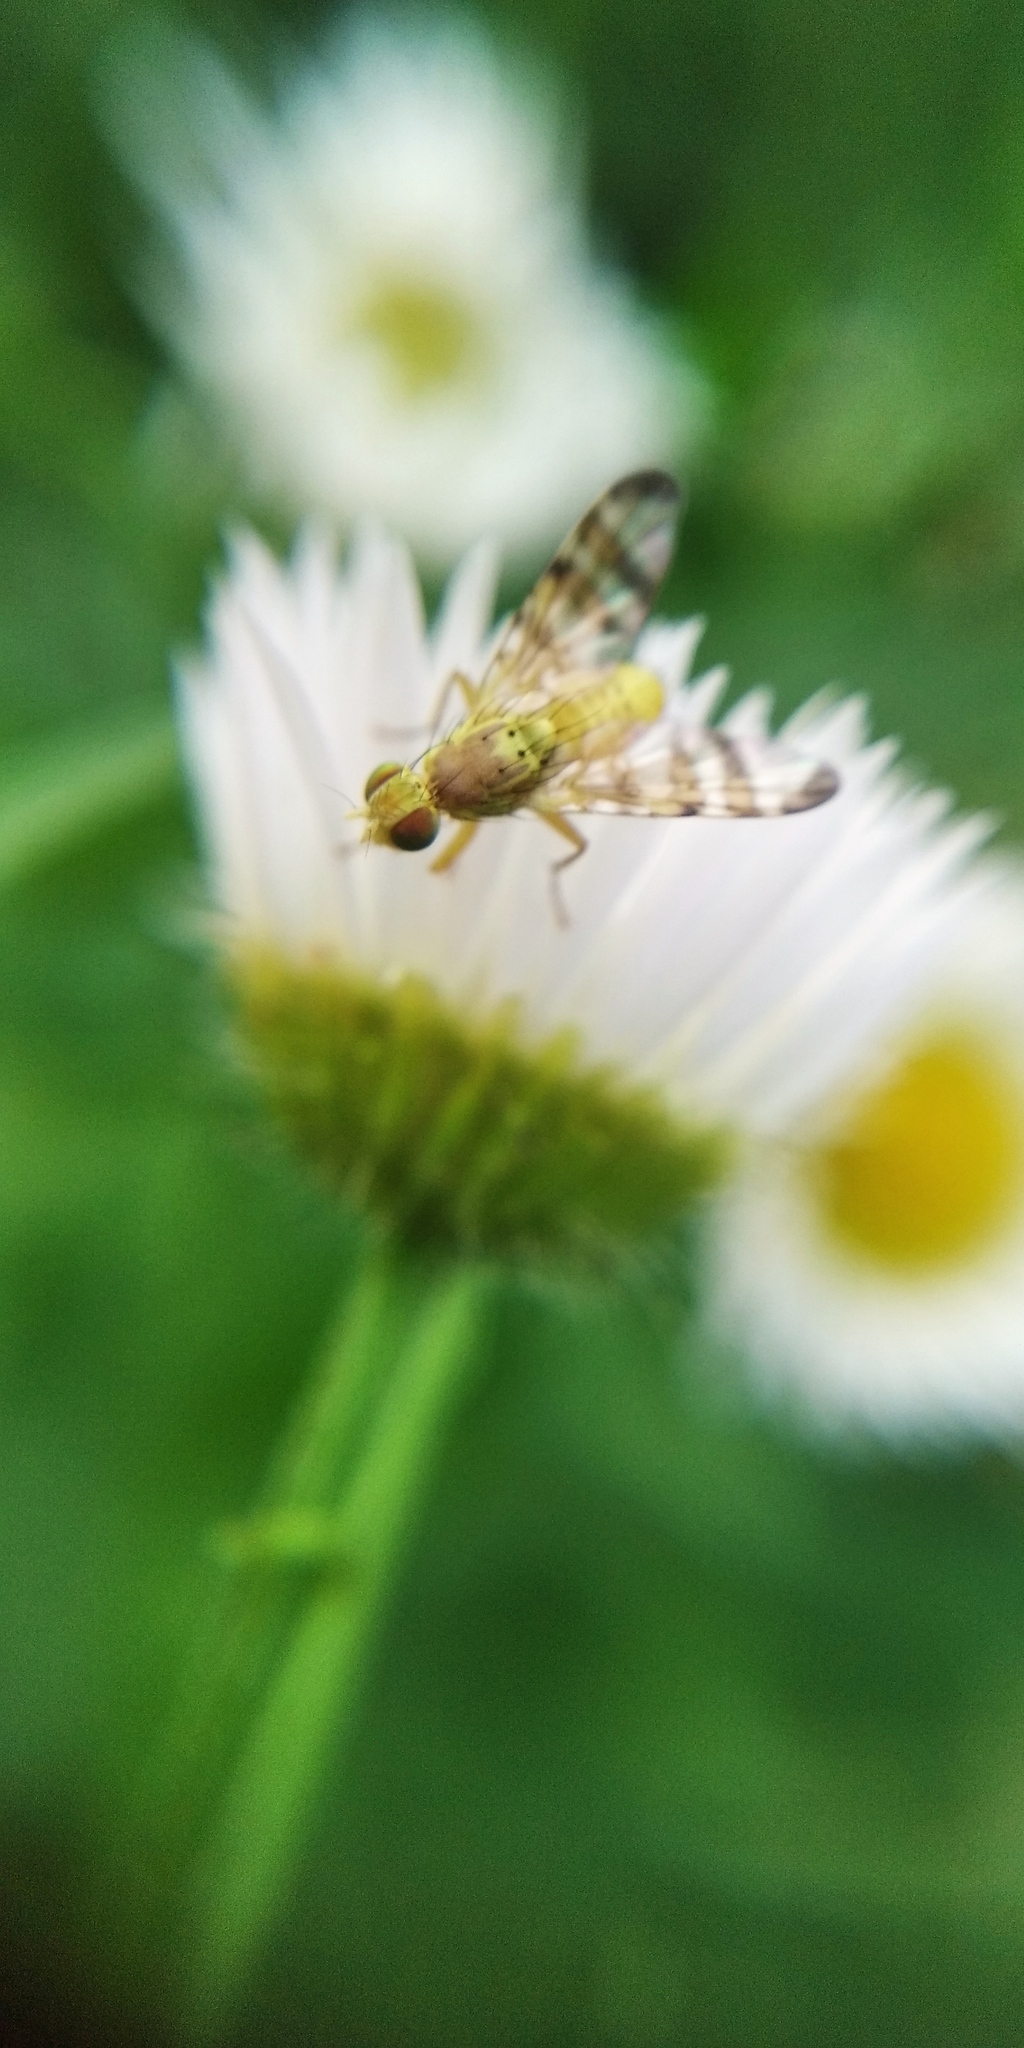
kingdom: Animalia
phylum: Arthropoda
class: Insecta
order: Diptera
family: Tephritidae
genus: Terellia
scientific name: Terellia tussilaginis
